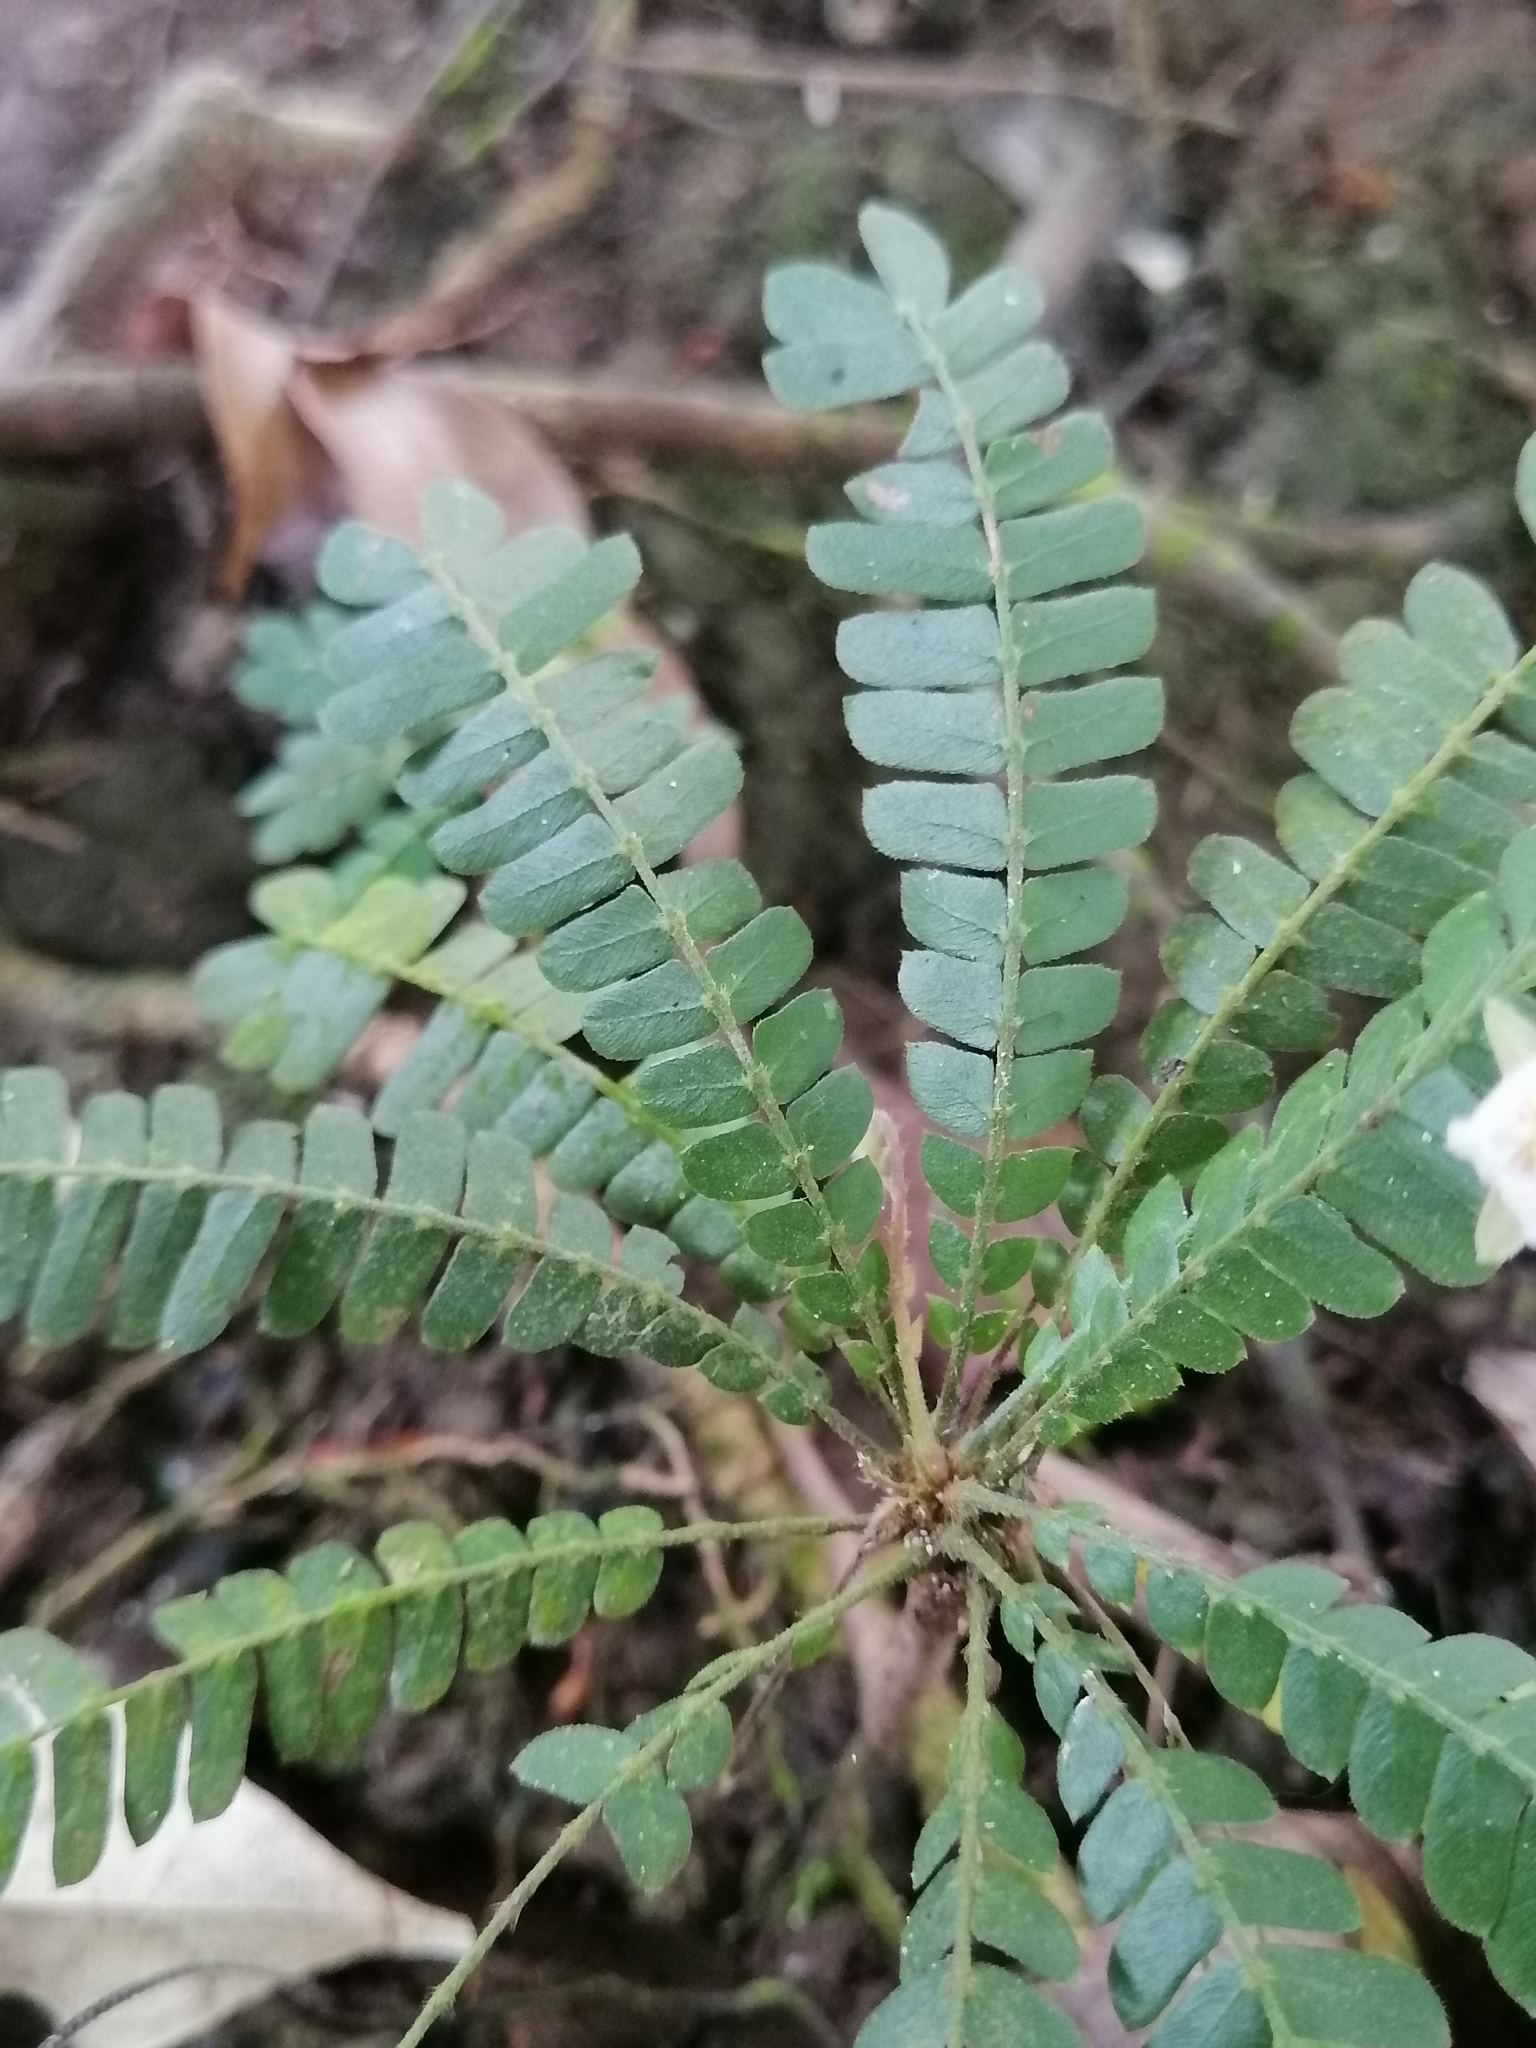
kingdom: Plantae
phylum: Tracheophyta
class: Magnoliopsida
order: Oxalidales
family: Oxalidaceae
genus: Biophytum
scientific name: Biophytum dendroides
